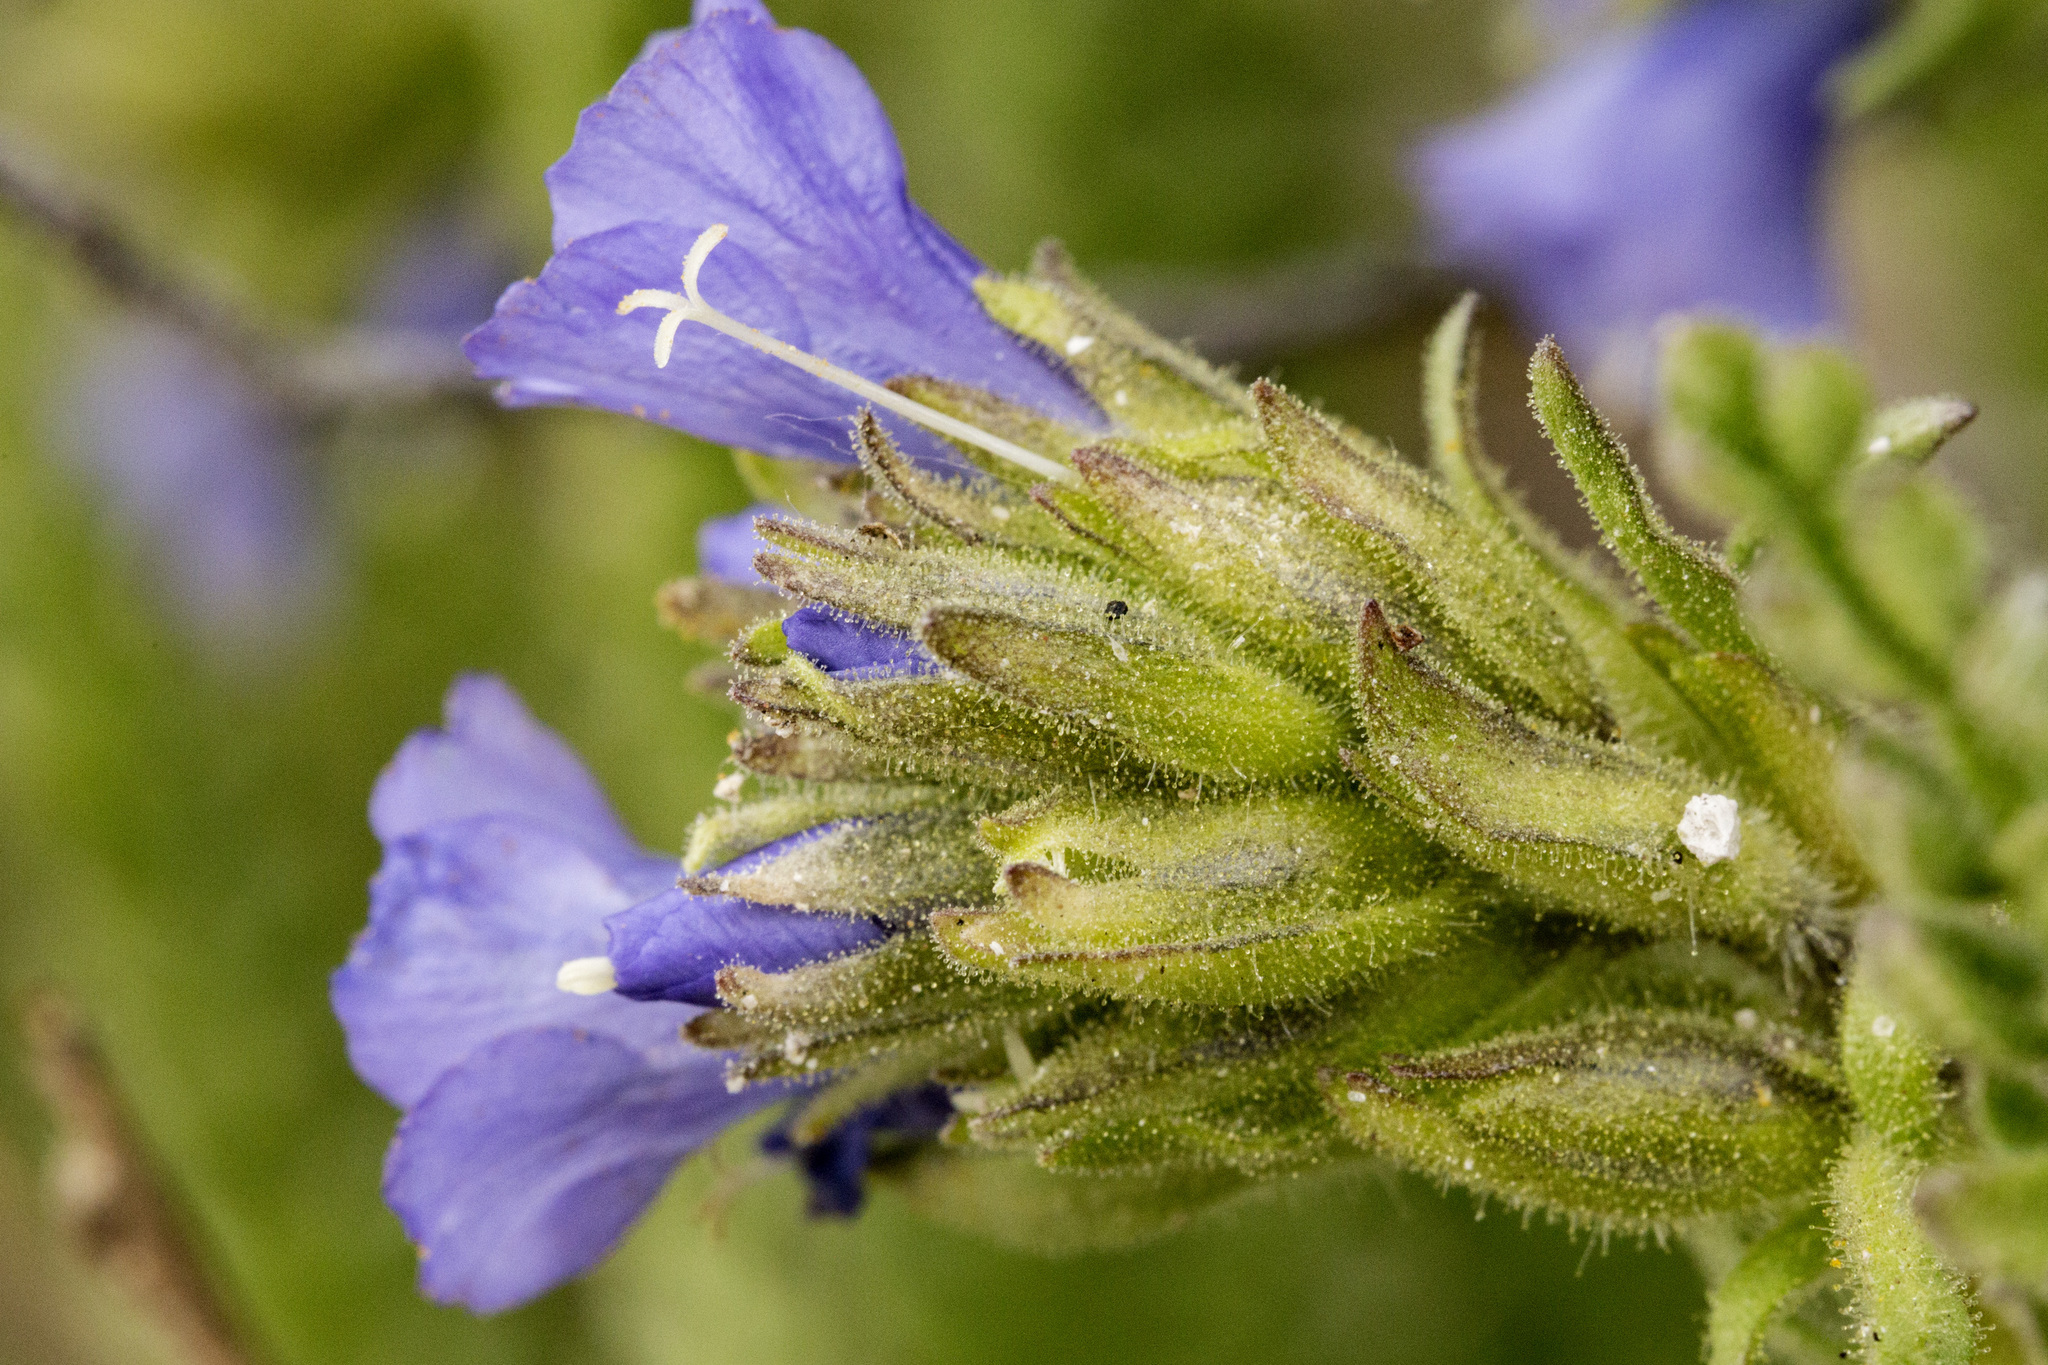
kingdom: Plantae
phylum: Tracheophyta
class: Magnoliopsida
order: Ericales
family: Polemoniaceae
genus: Polemonium
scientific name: Polemonium viscosum
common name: Skunk jacob's-ladder
